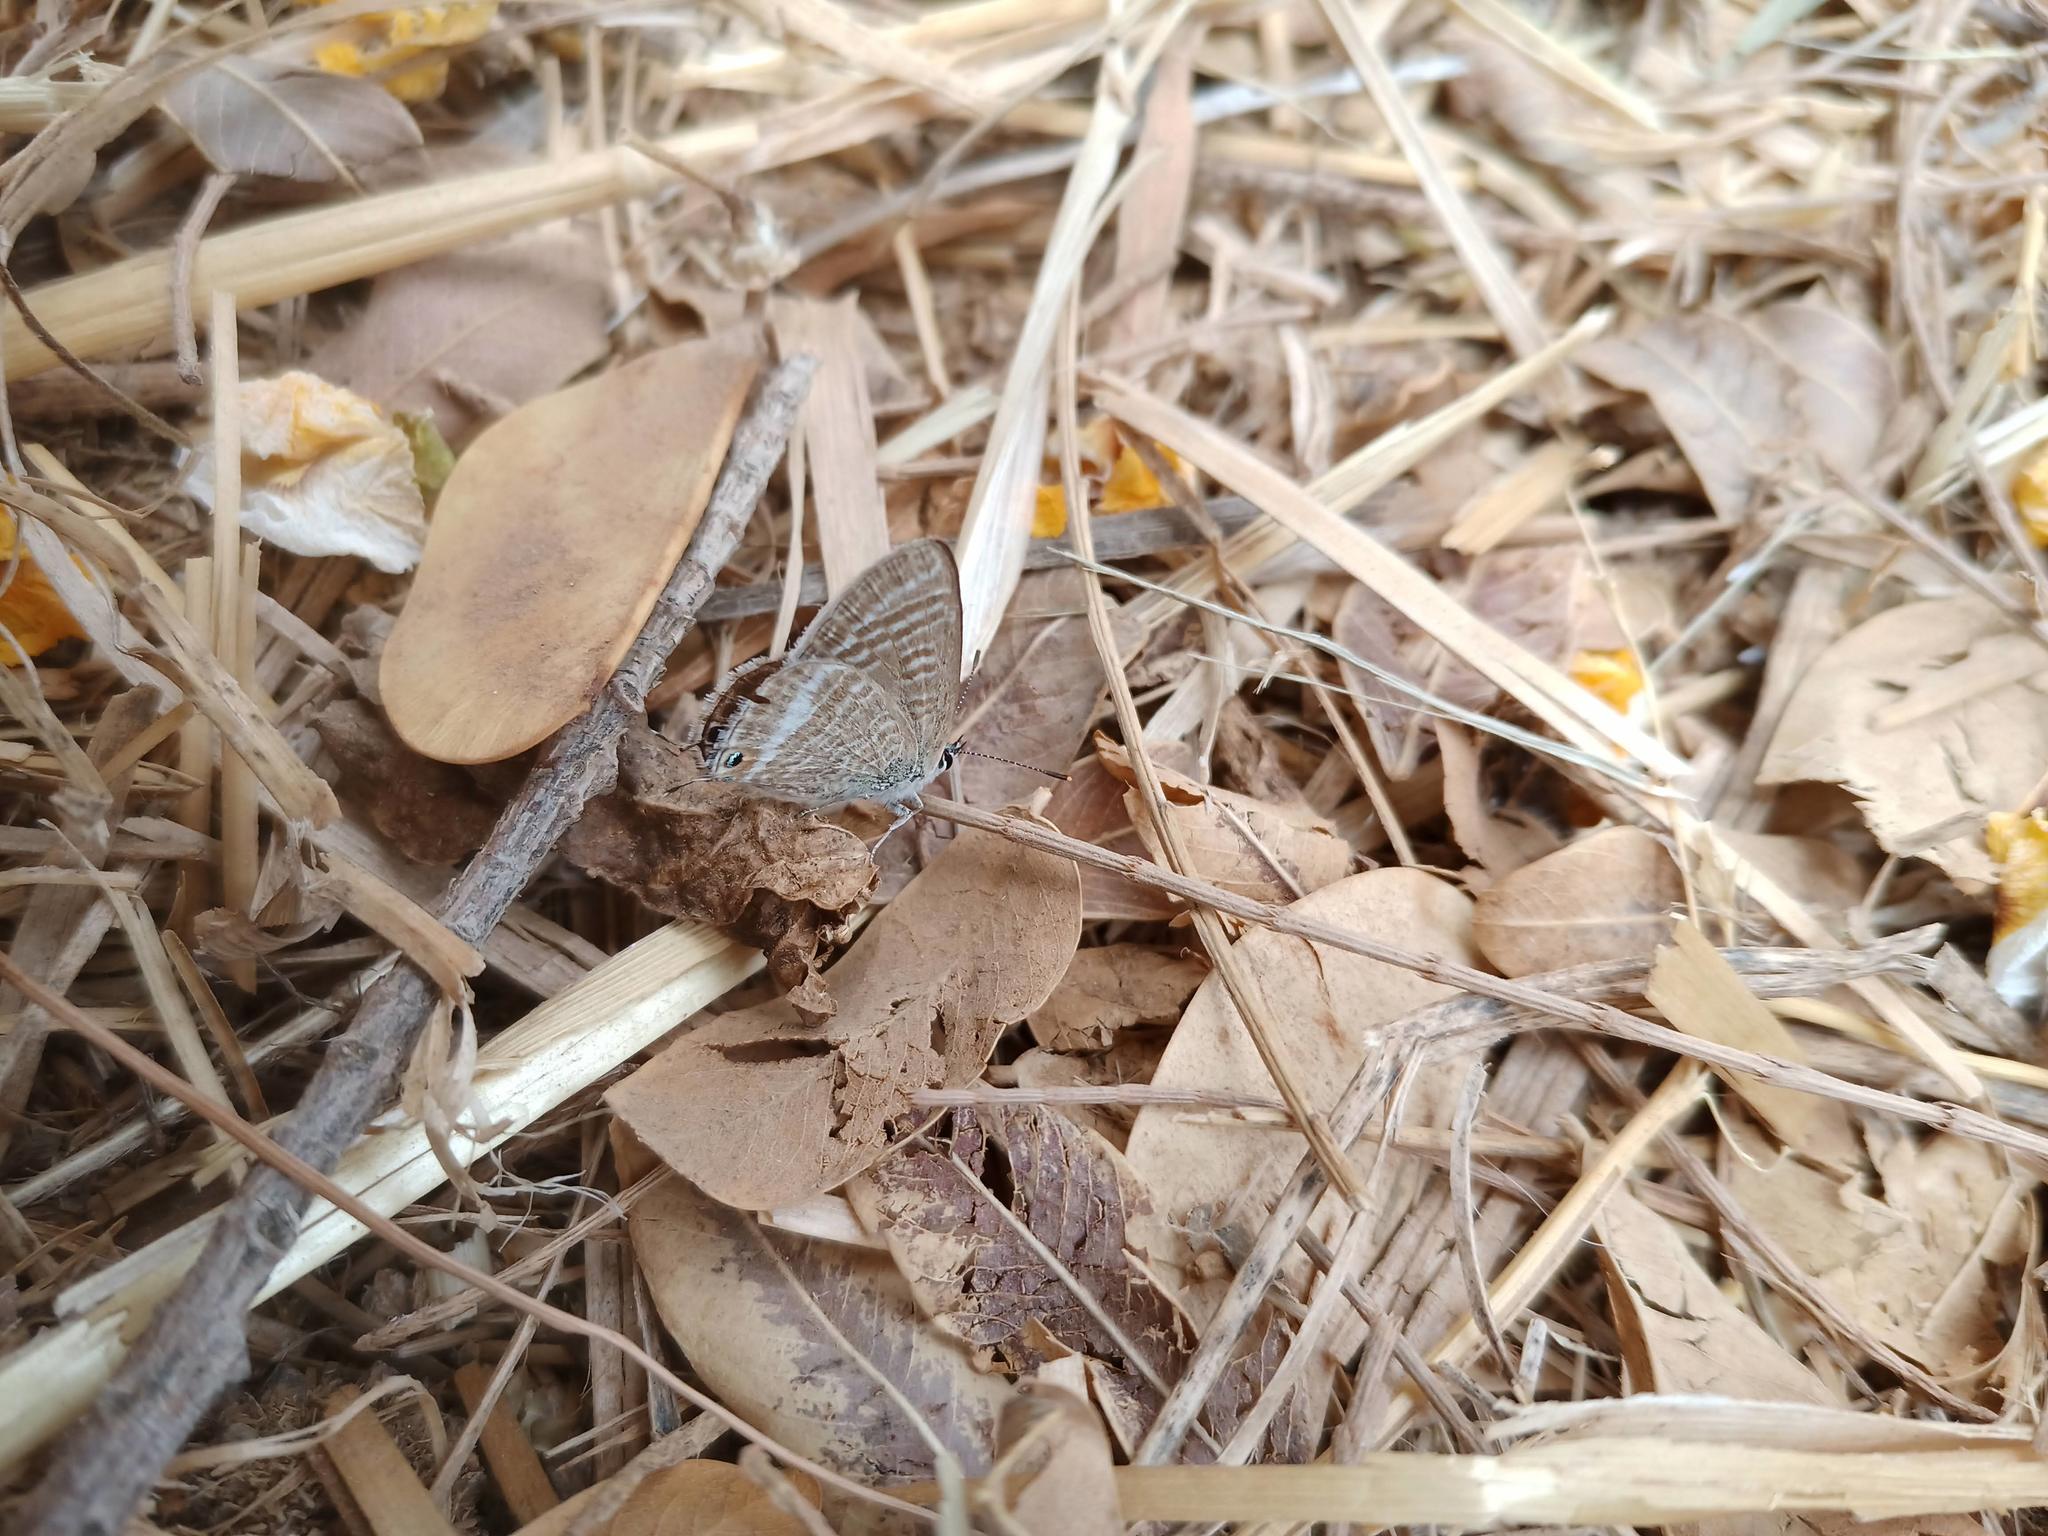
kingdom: Animalia
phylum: Arthropoda
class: Insecta
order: Lepidoptera
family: Lycaenidae
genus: Lampides
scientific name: Lampides boeticus
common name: Long-tailed blue
